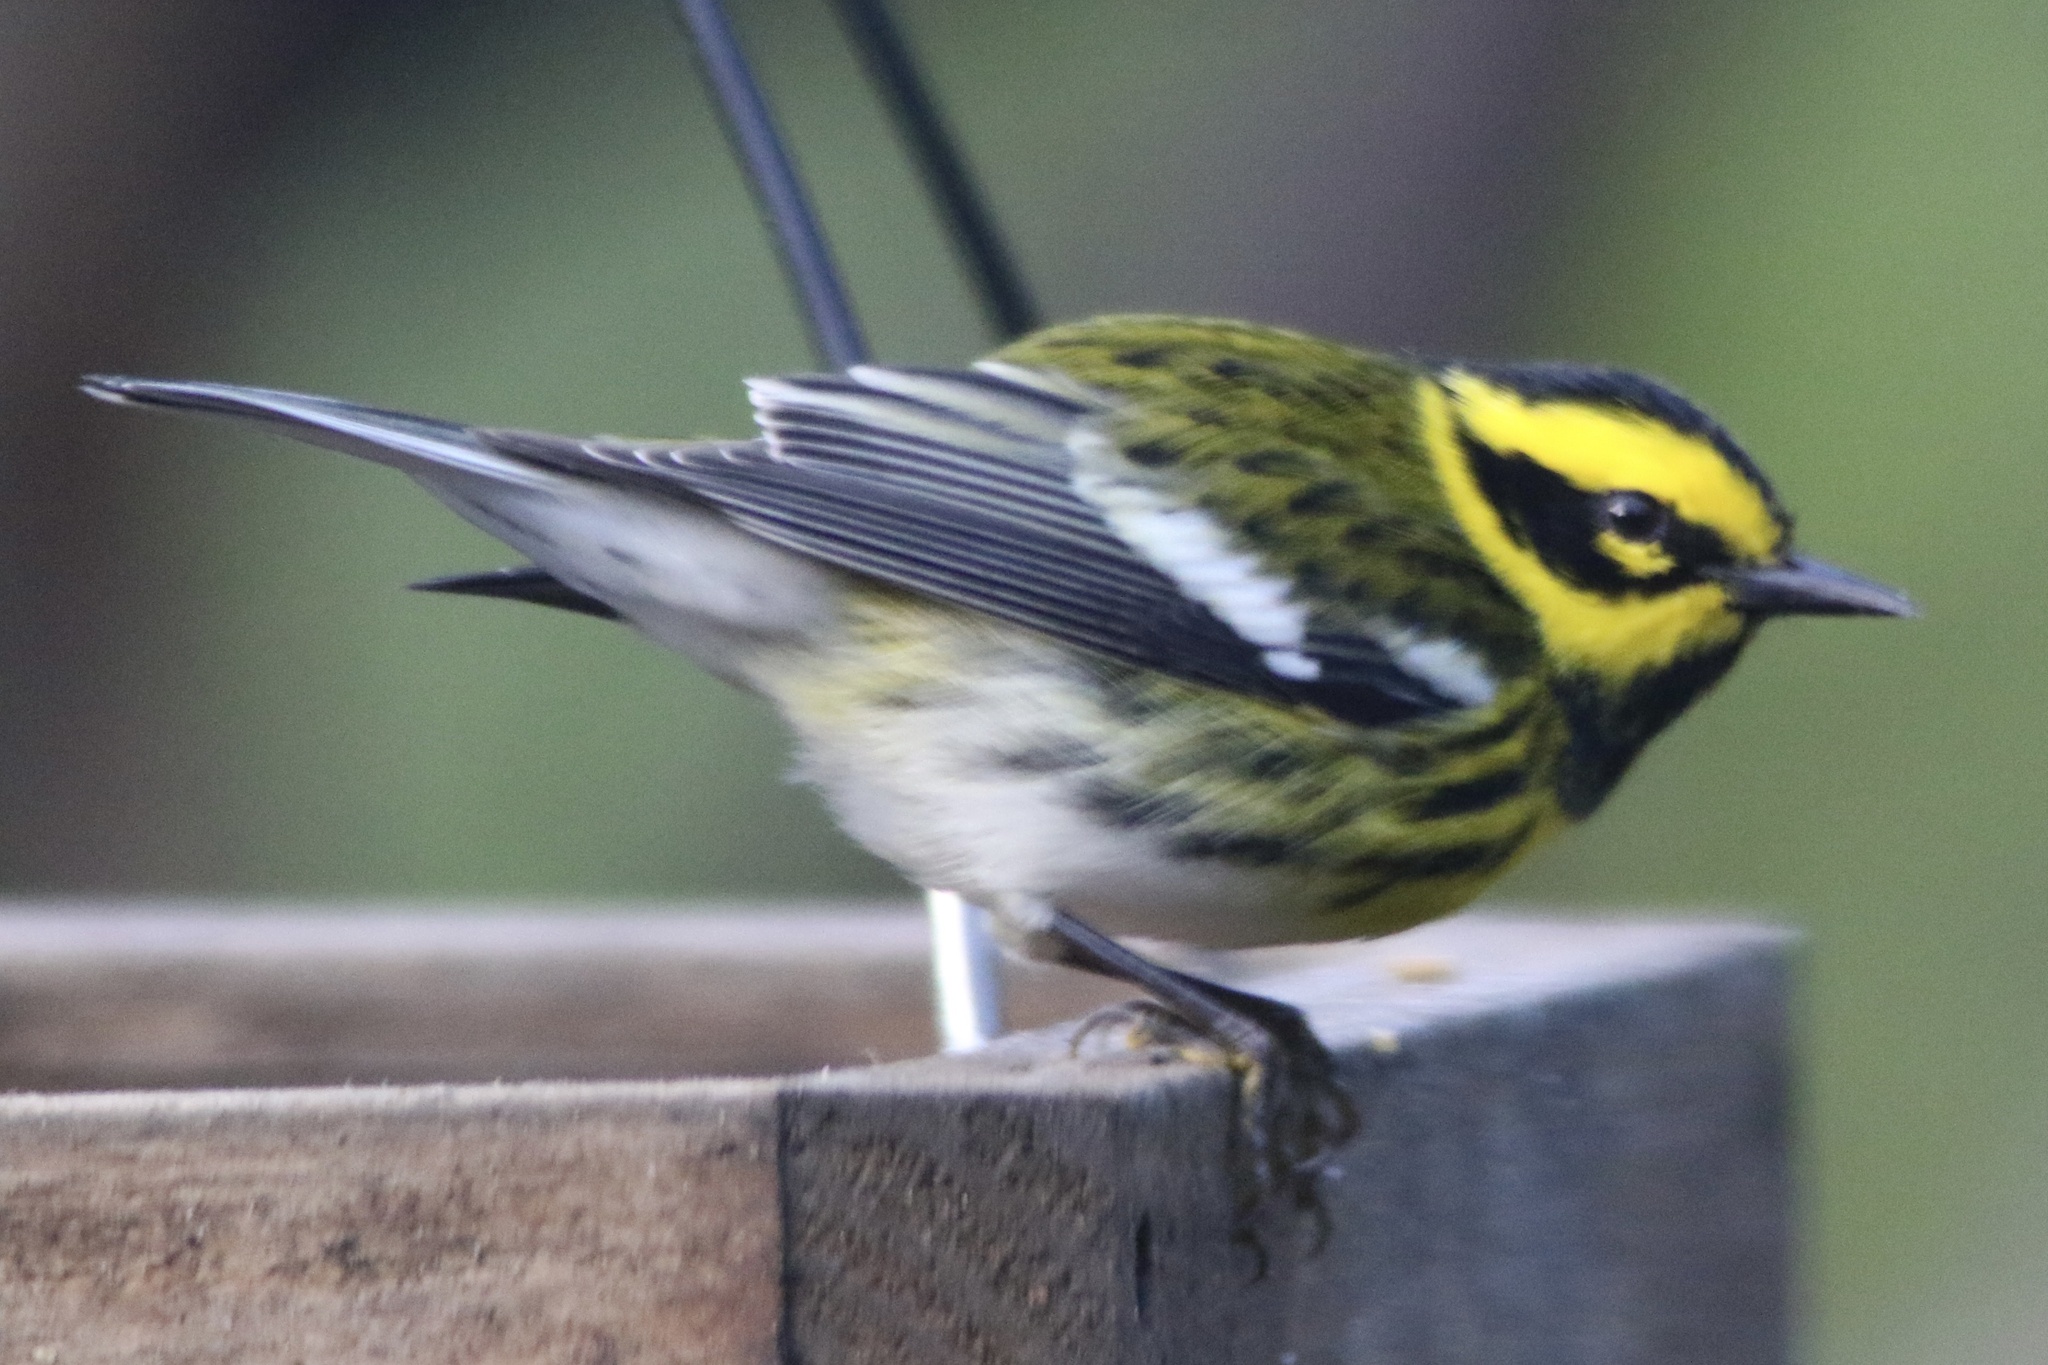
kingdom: Animalia
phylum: Chordata
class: Aves
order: Passeriformes
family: Parulidae
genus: Setophaga
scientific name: Setophaga townsendi
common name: Townsend's warbler
